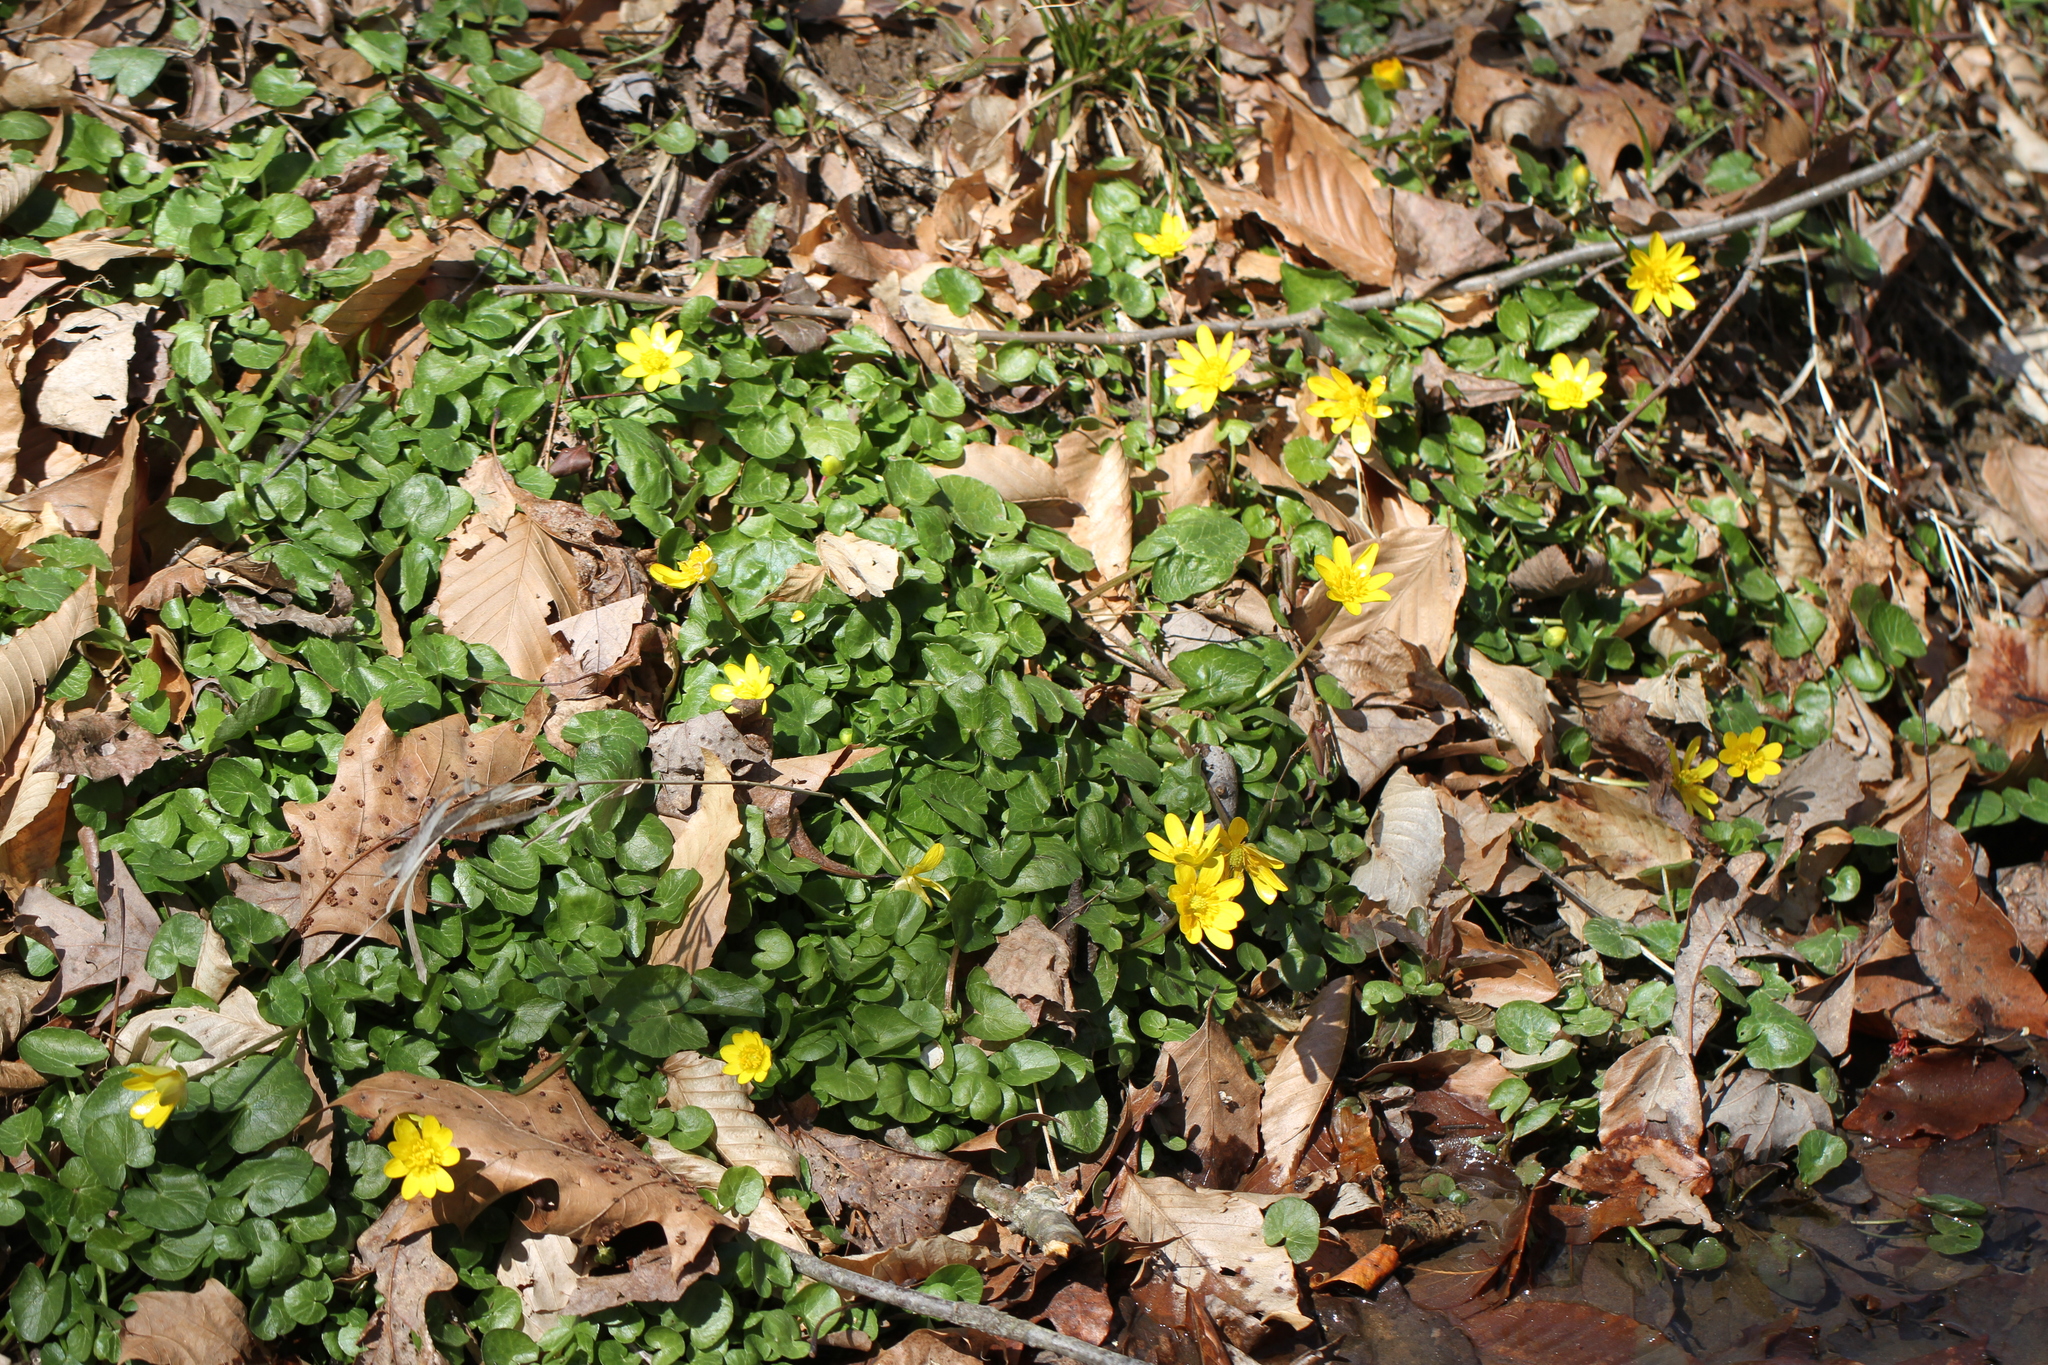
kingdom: Plantae
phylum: Tracheophyta
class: Magnoliopsida
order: Ranunculales
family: Ranunculaceae
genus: Ficaria
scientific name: Ficaria verna
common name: Lesser celandine
